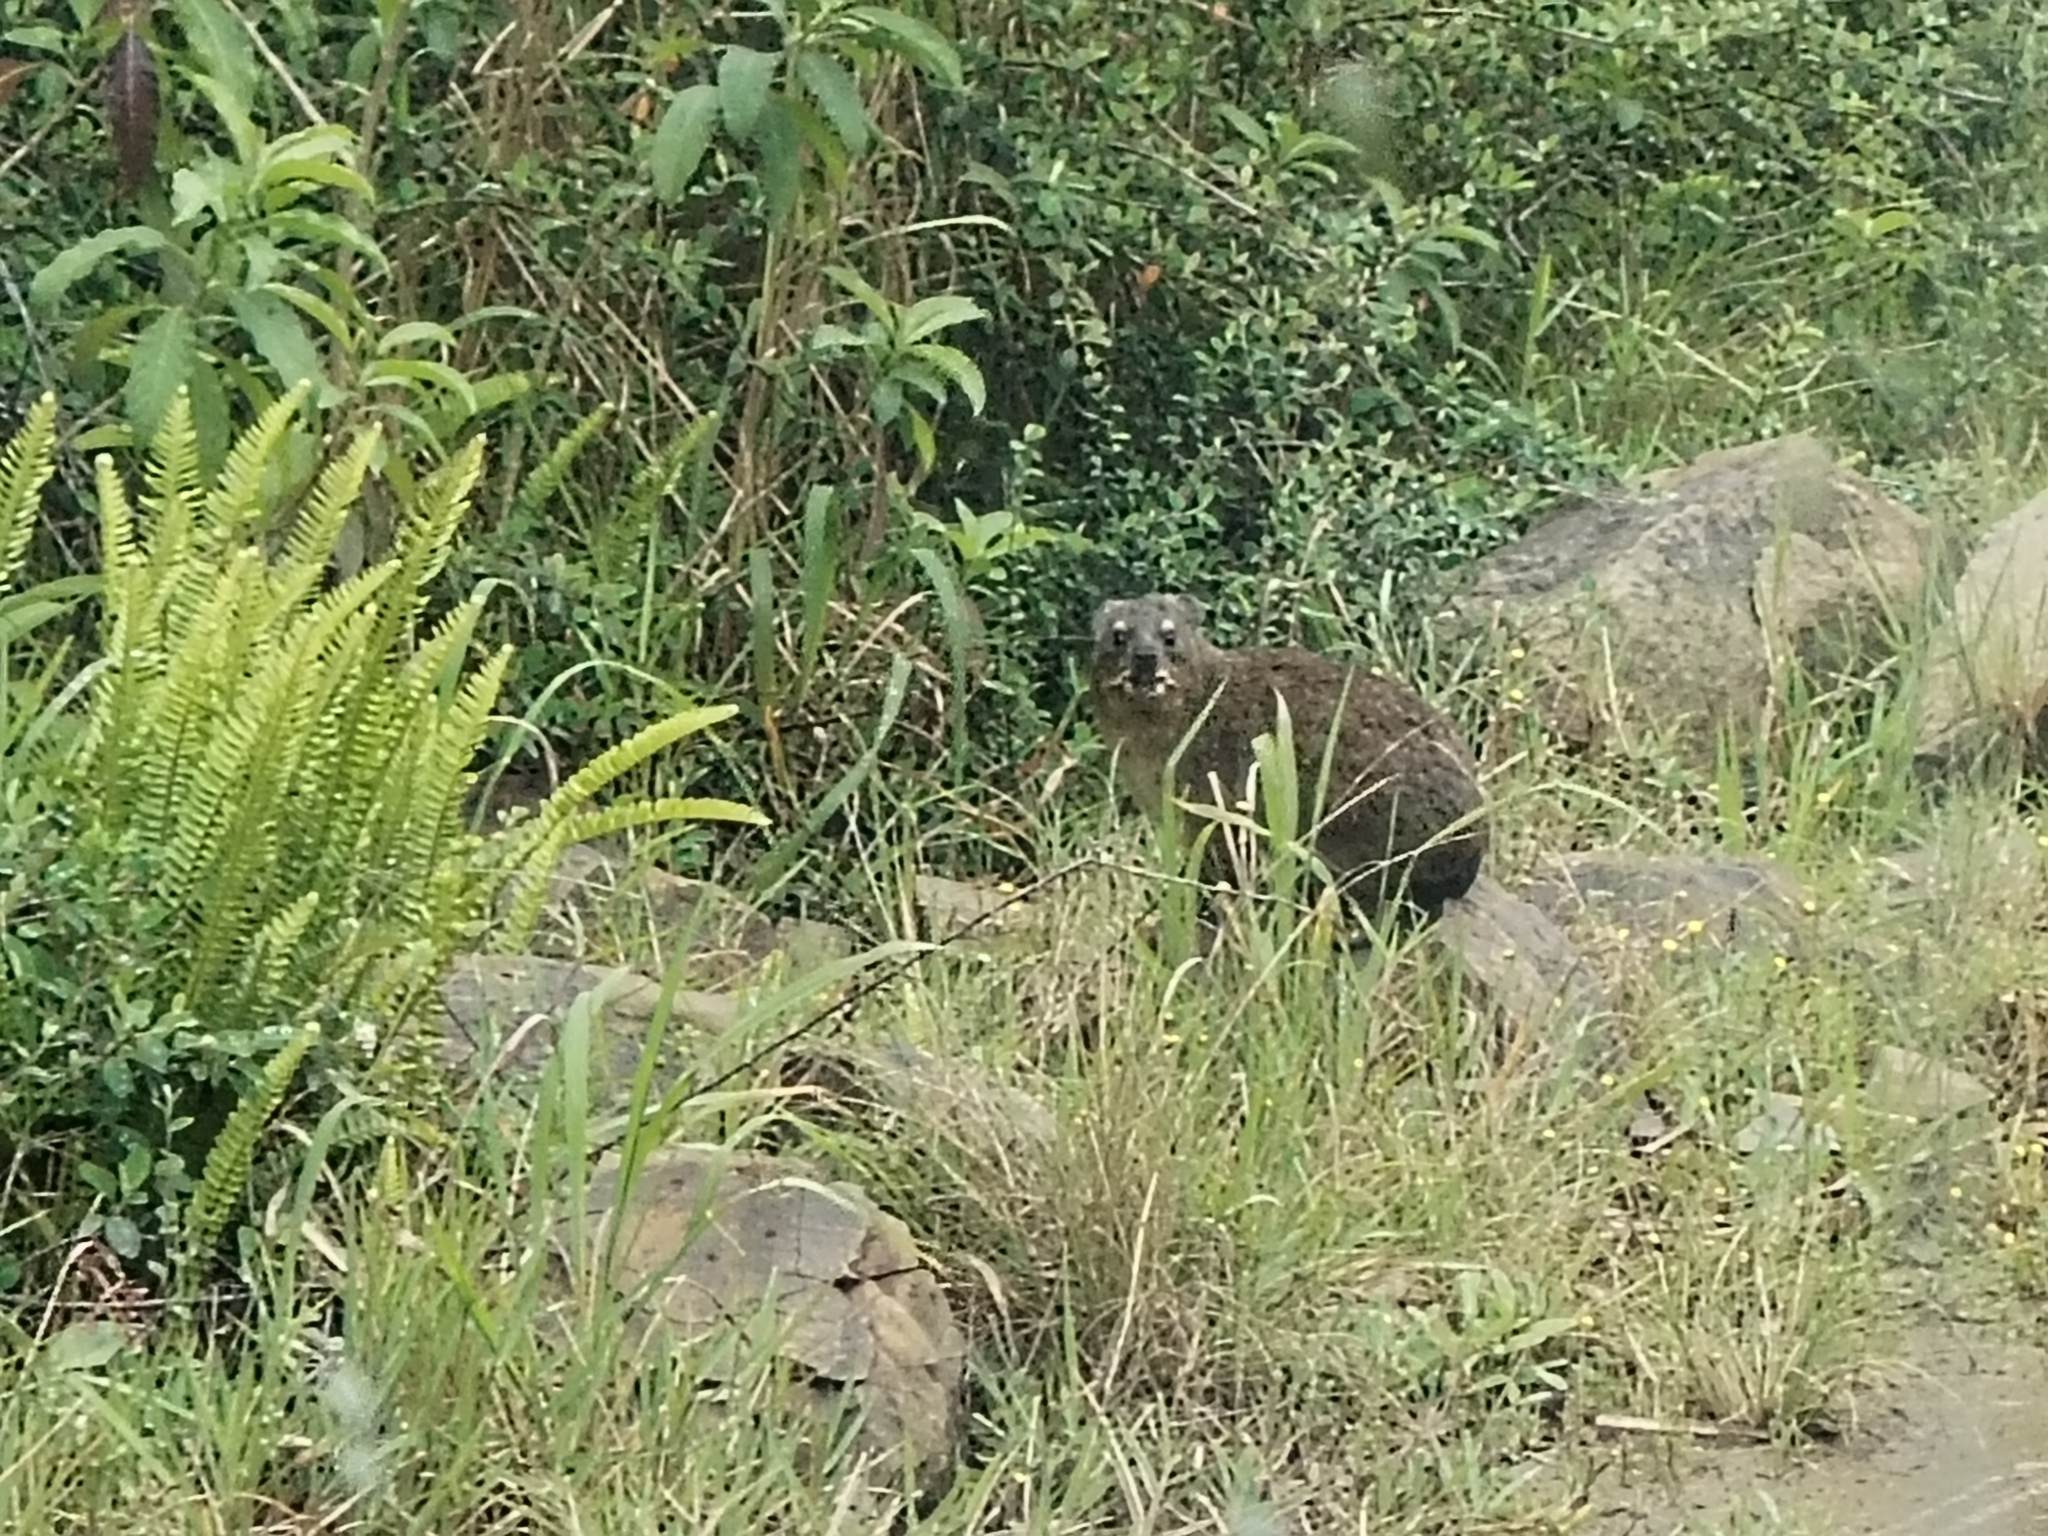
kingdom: Animalia
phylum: Chordata
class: Mammalia
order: Hyracoidea
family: Procaviidae
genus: Procavia
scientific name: Procavia capensis
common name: Rock hyrax
